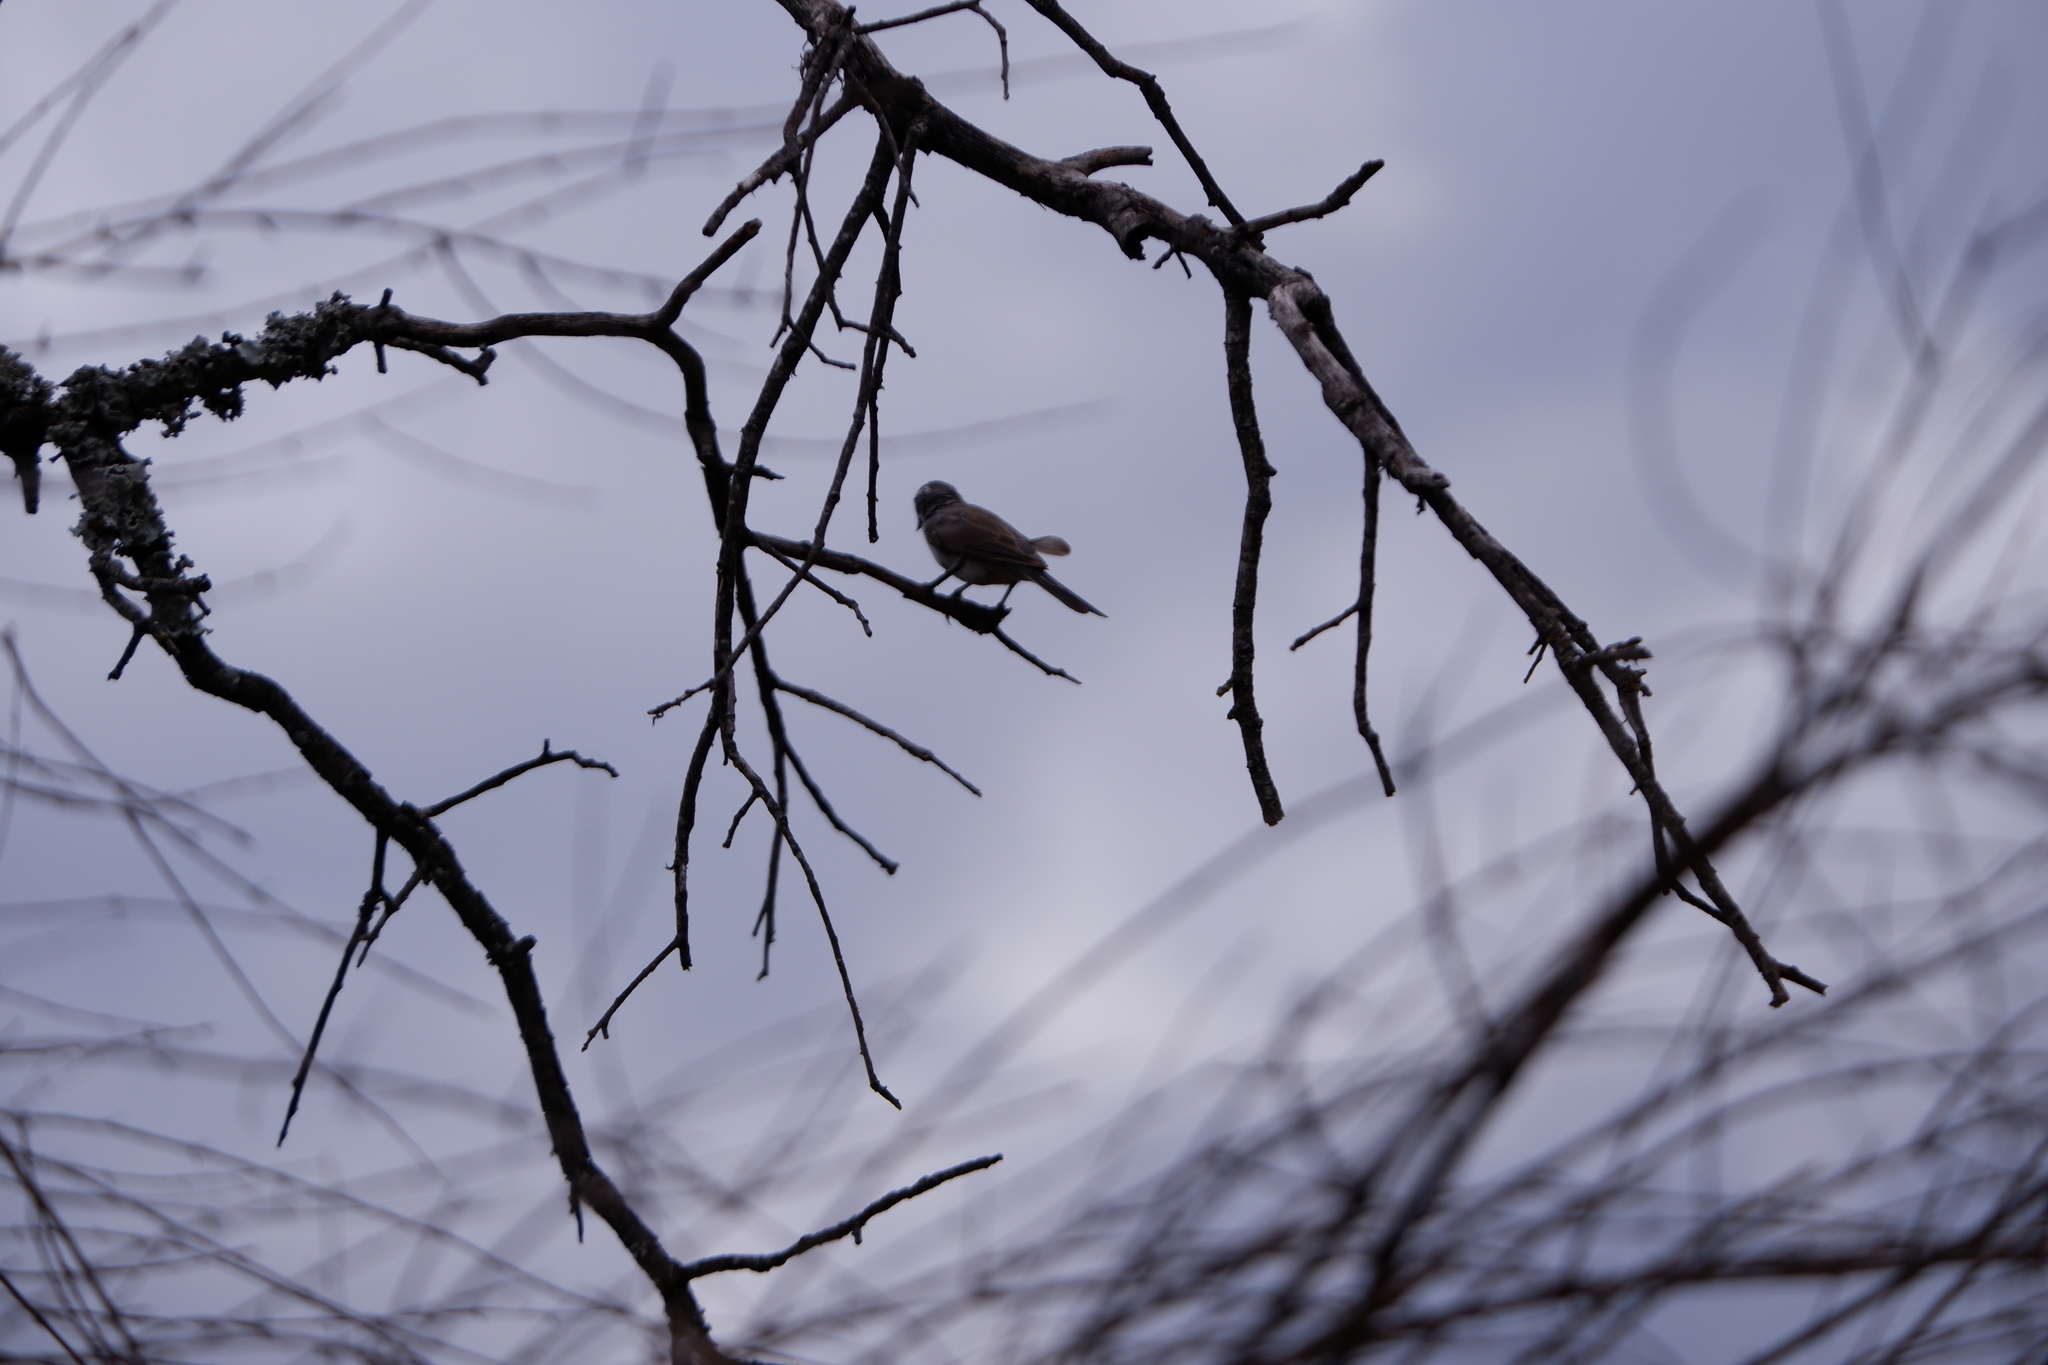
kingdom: Animalia
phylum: Chordata
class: Aves
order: Passeriformes
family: Passerellidae
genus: Amphispiza
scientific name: Amphispiza bilineata
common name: Black-throated sparrow
